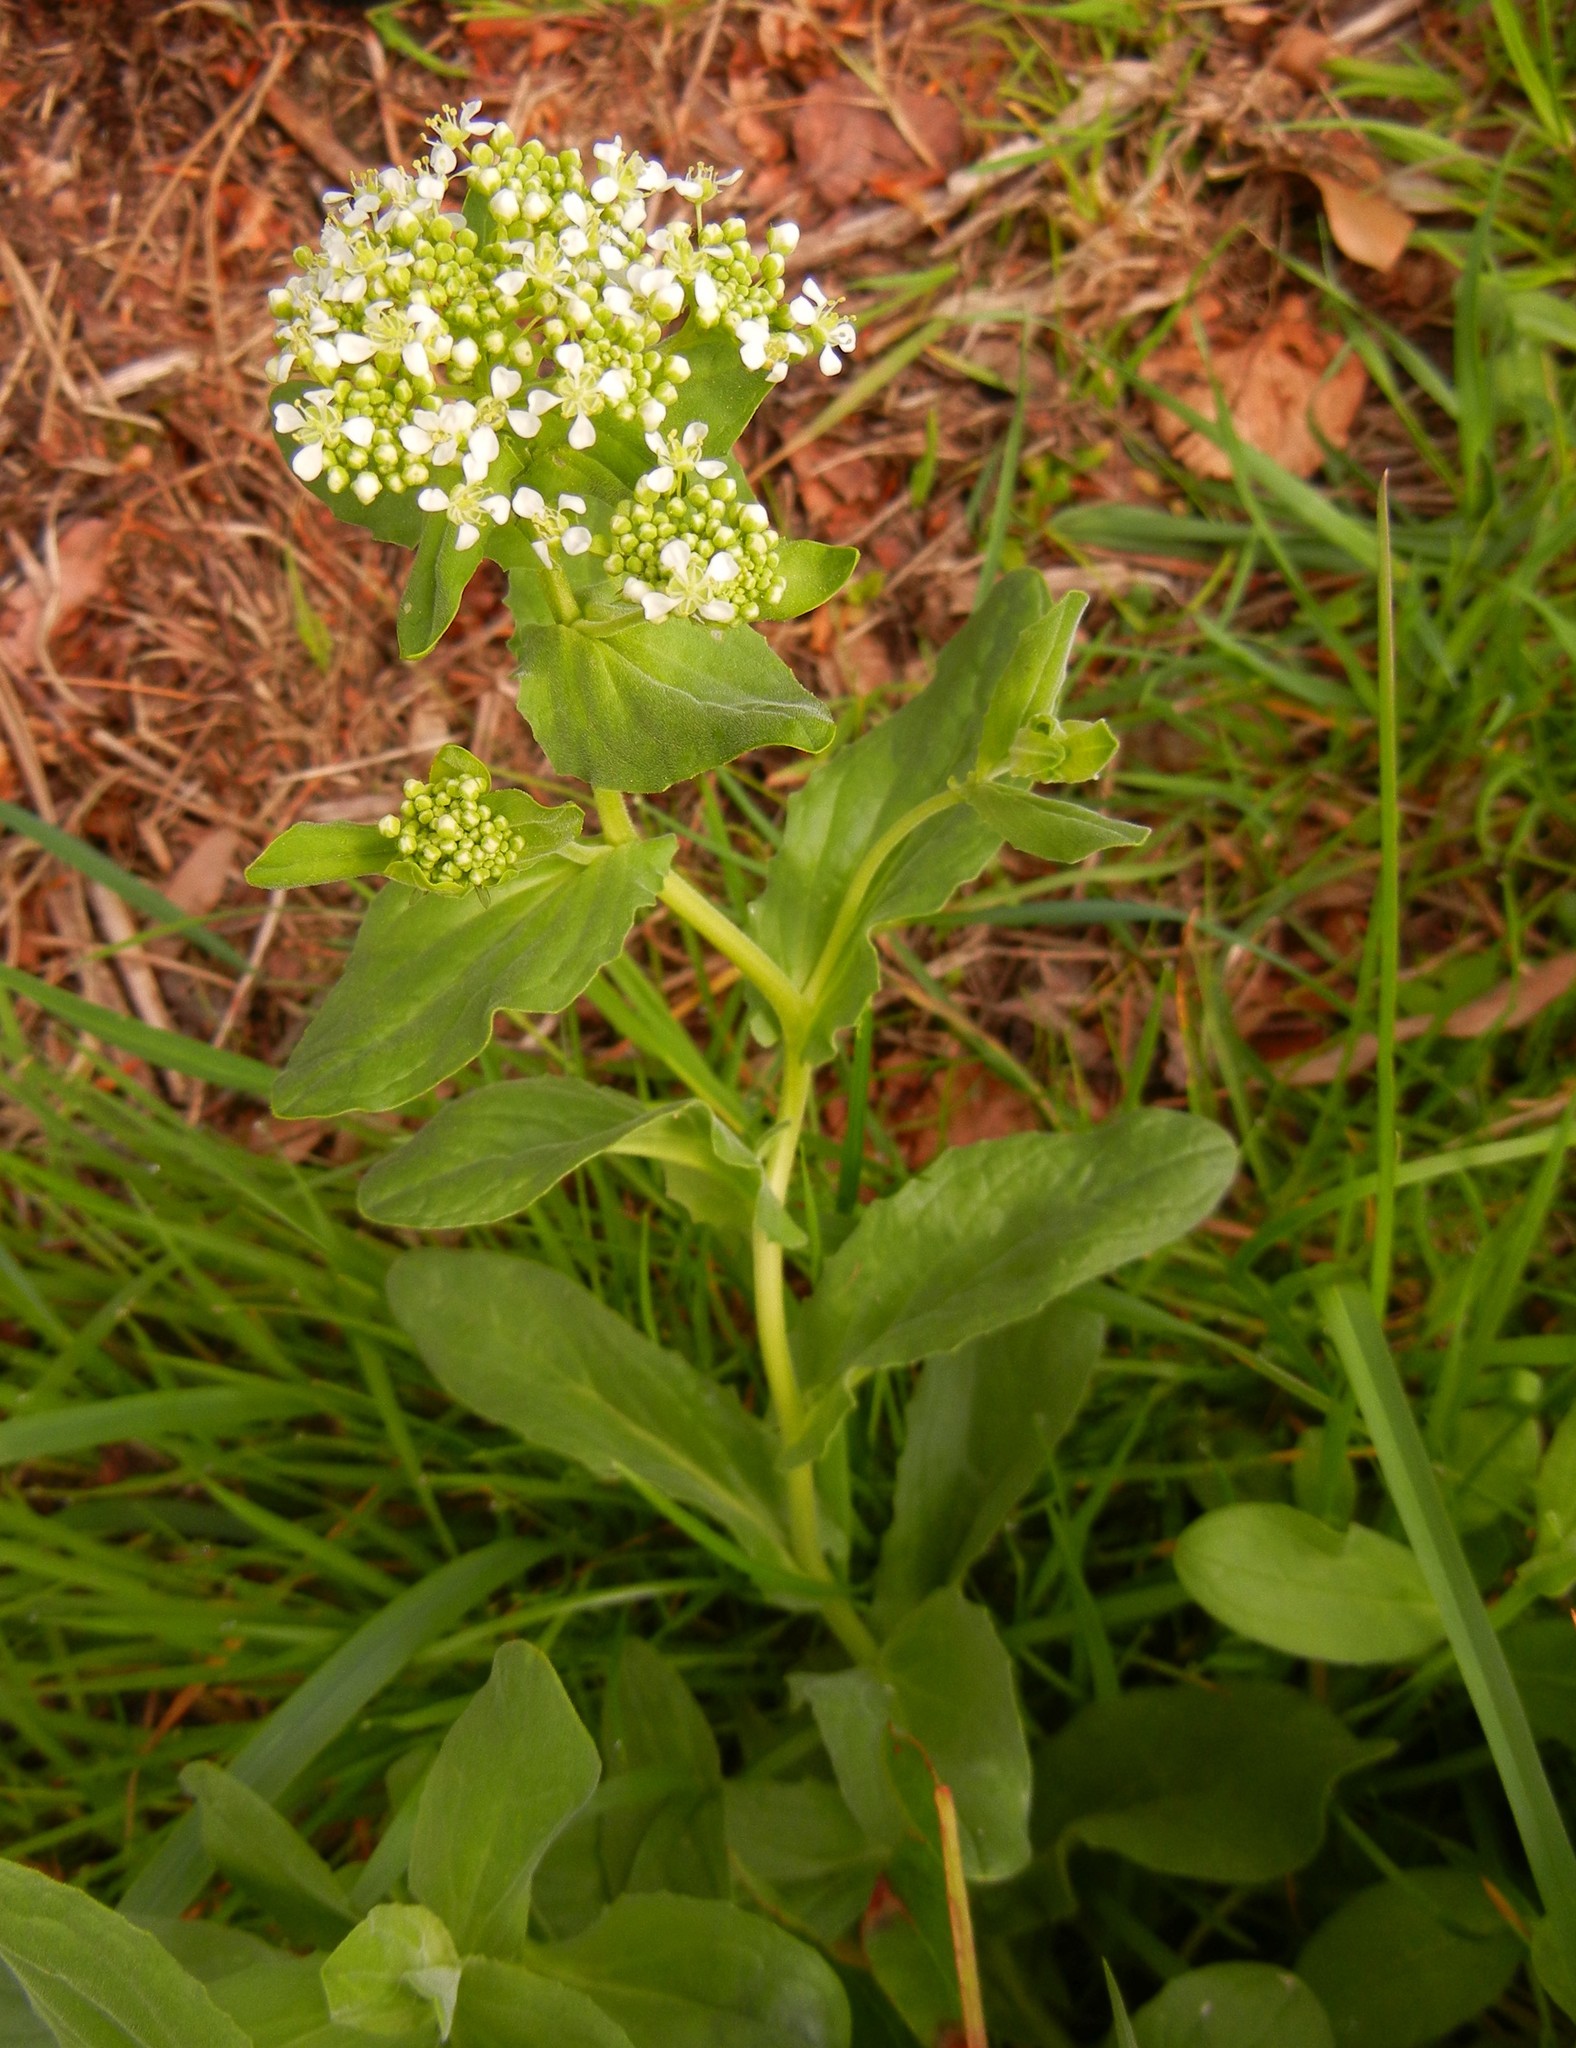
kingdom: Plantae
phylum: Tracheophyta
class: Magnoliopsida
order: Brassicales
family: Brassicaceae
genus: Lepidium
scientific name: Lepidium draba
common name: Hoary cress
